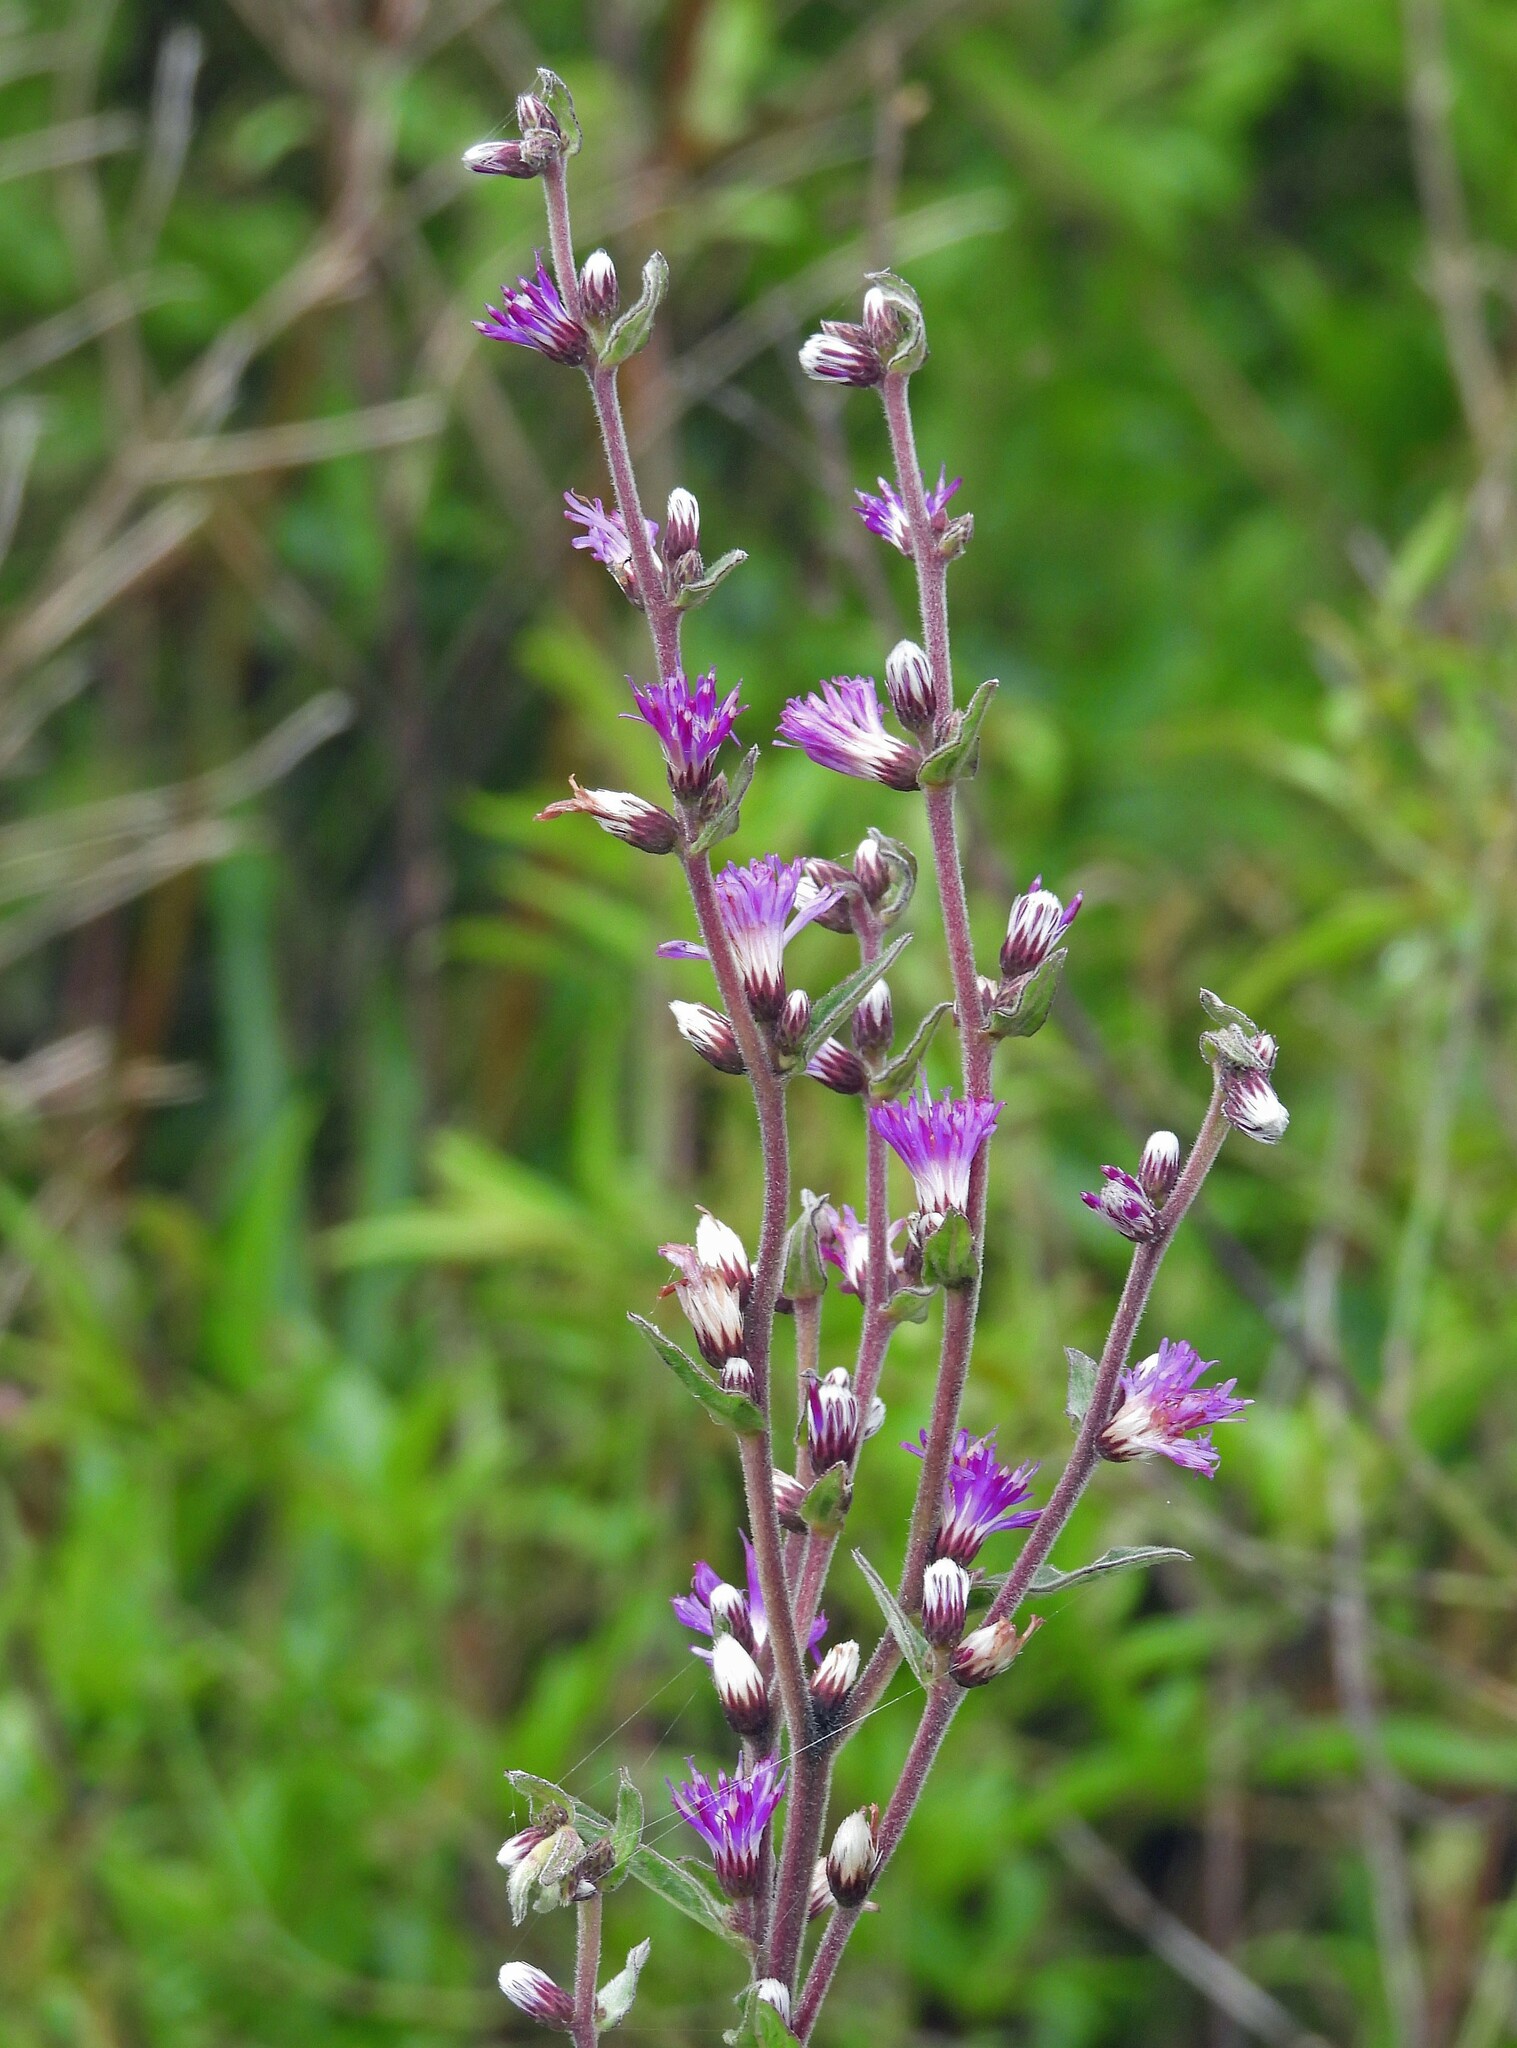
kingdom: Plantae
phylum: Tracheophyta
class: Magnoliopsida
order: Asterales
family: Asteraceae
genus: Chrysolaena
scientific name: Chrysolaena cognata
